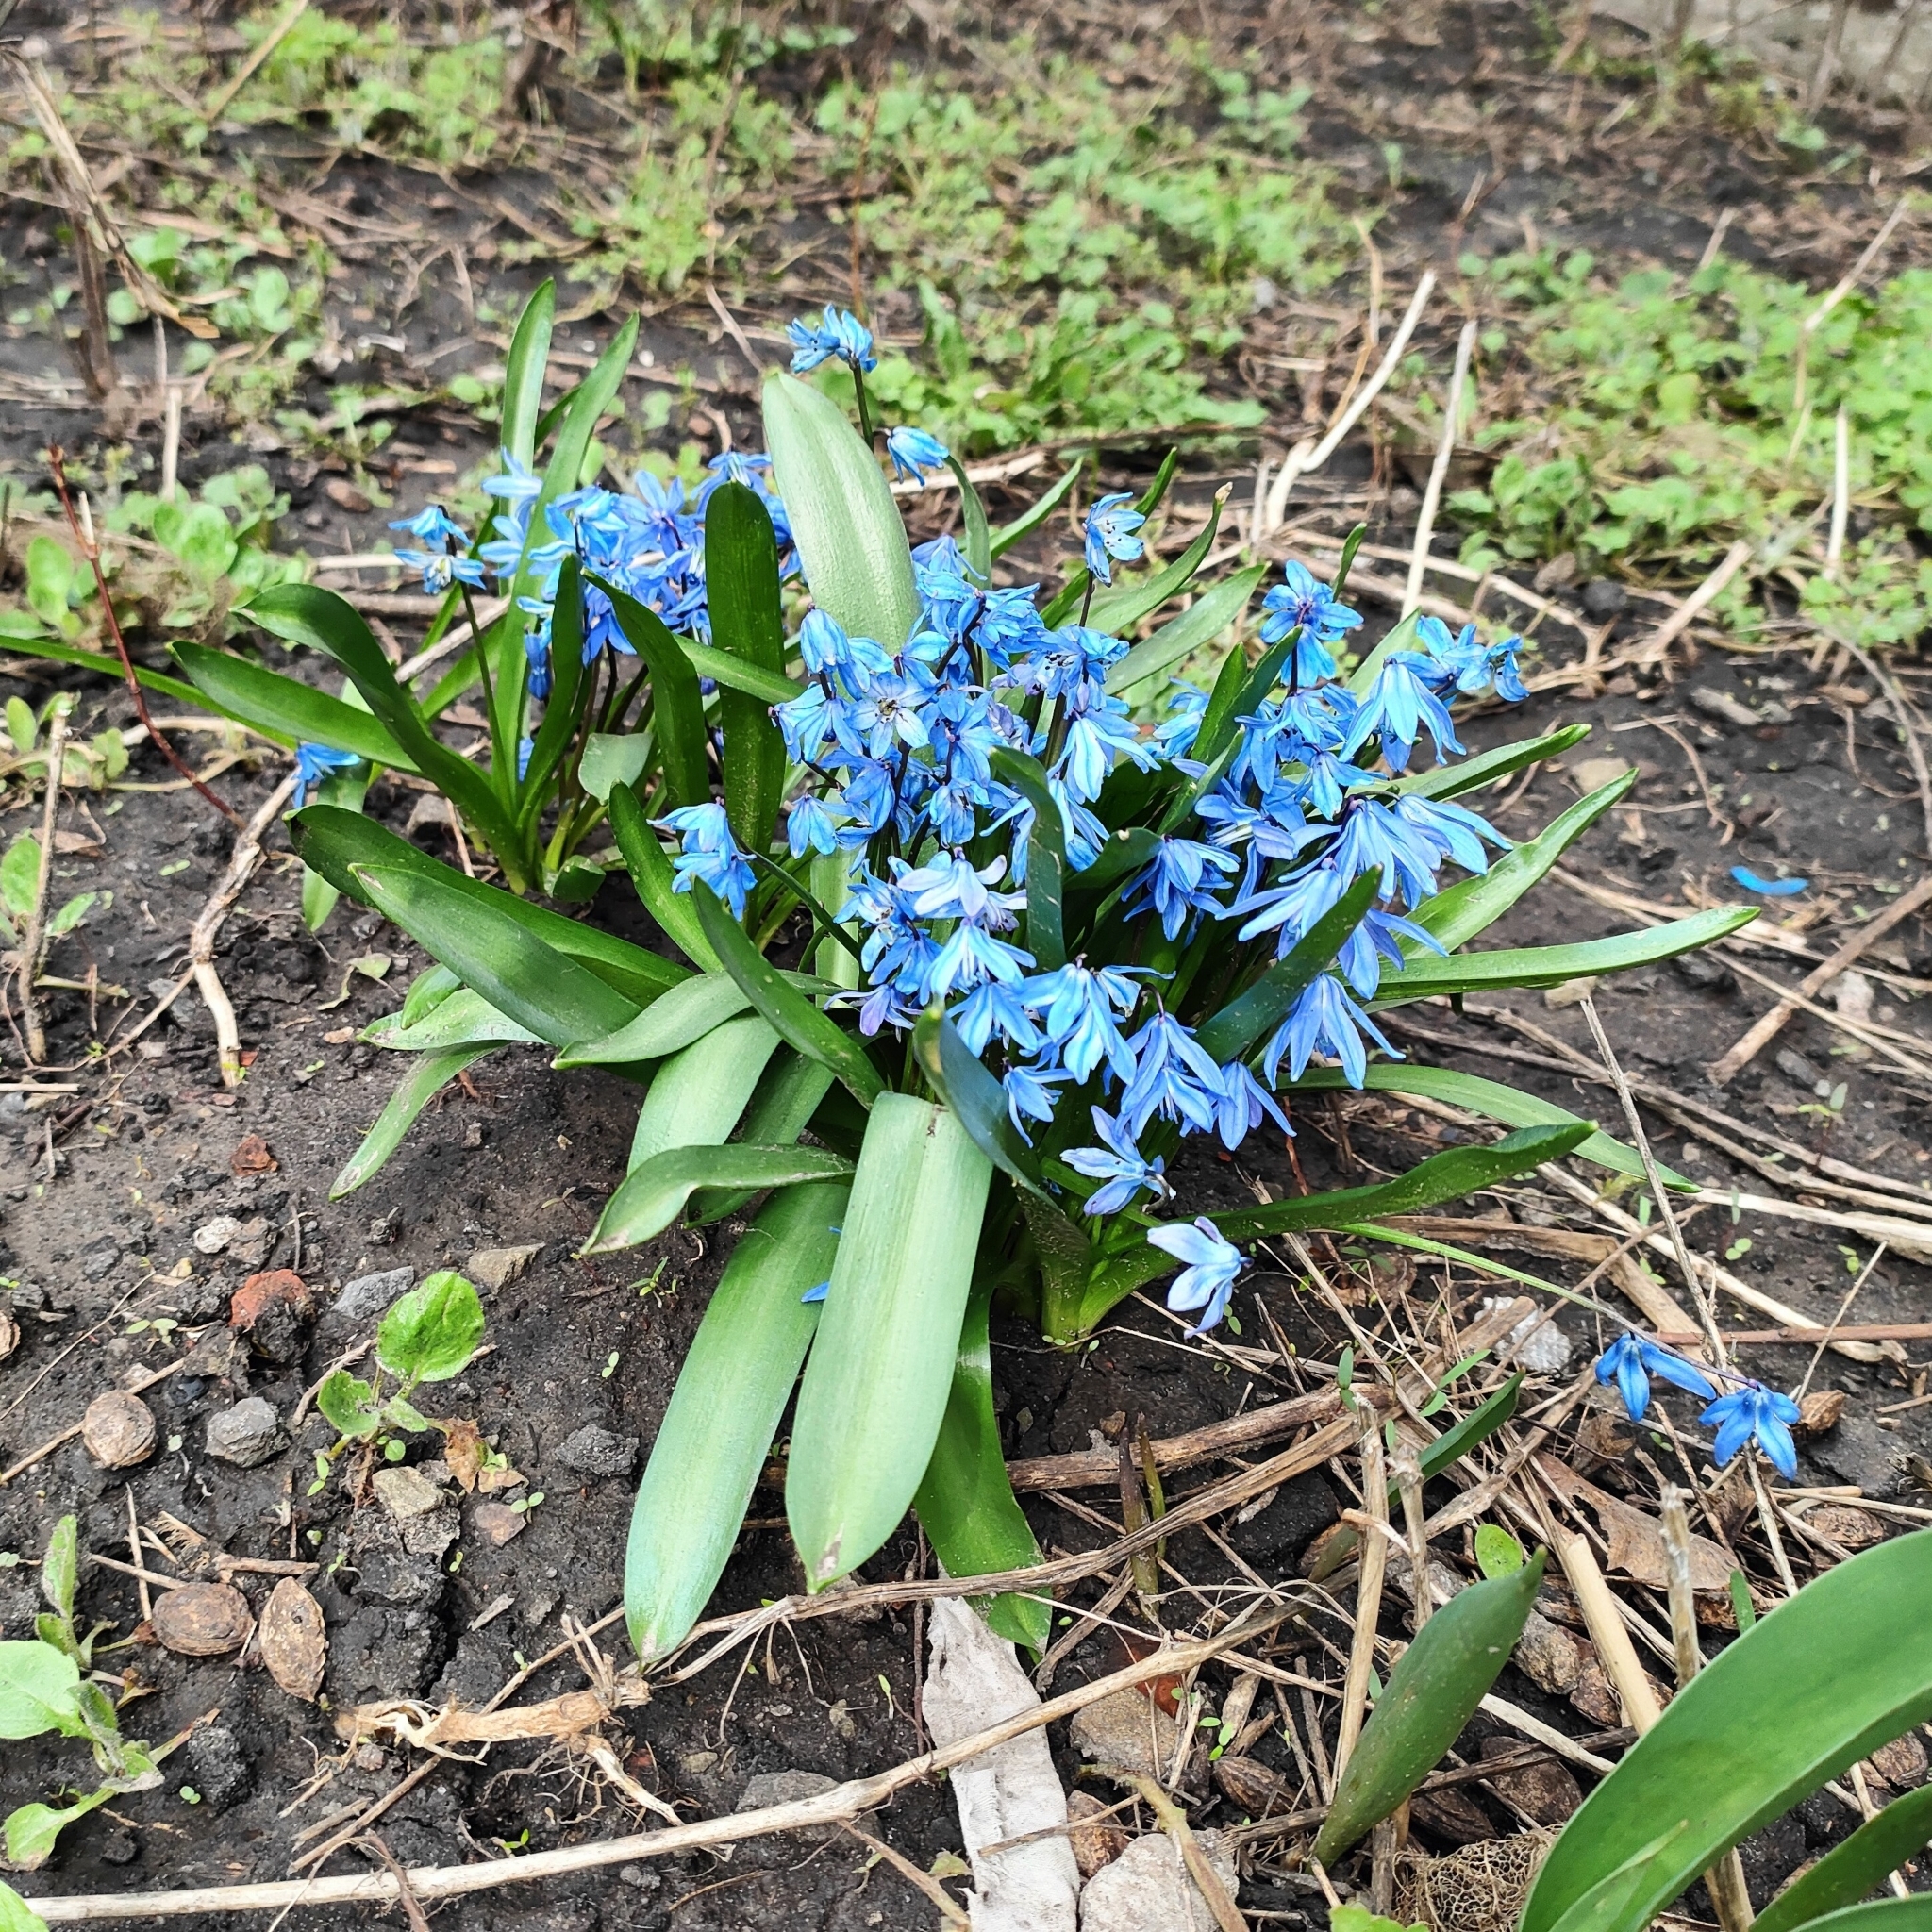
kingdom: Plantae
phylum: Tracheophyta
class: Liliopsida
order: Asparagales
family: Asparagaceae
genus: Scilla
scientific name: Scilla siberica
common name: Siberian squill
